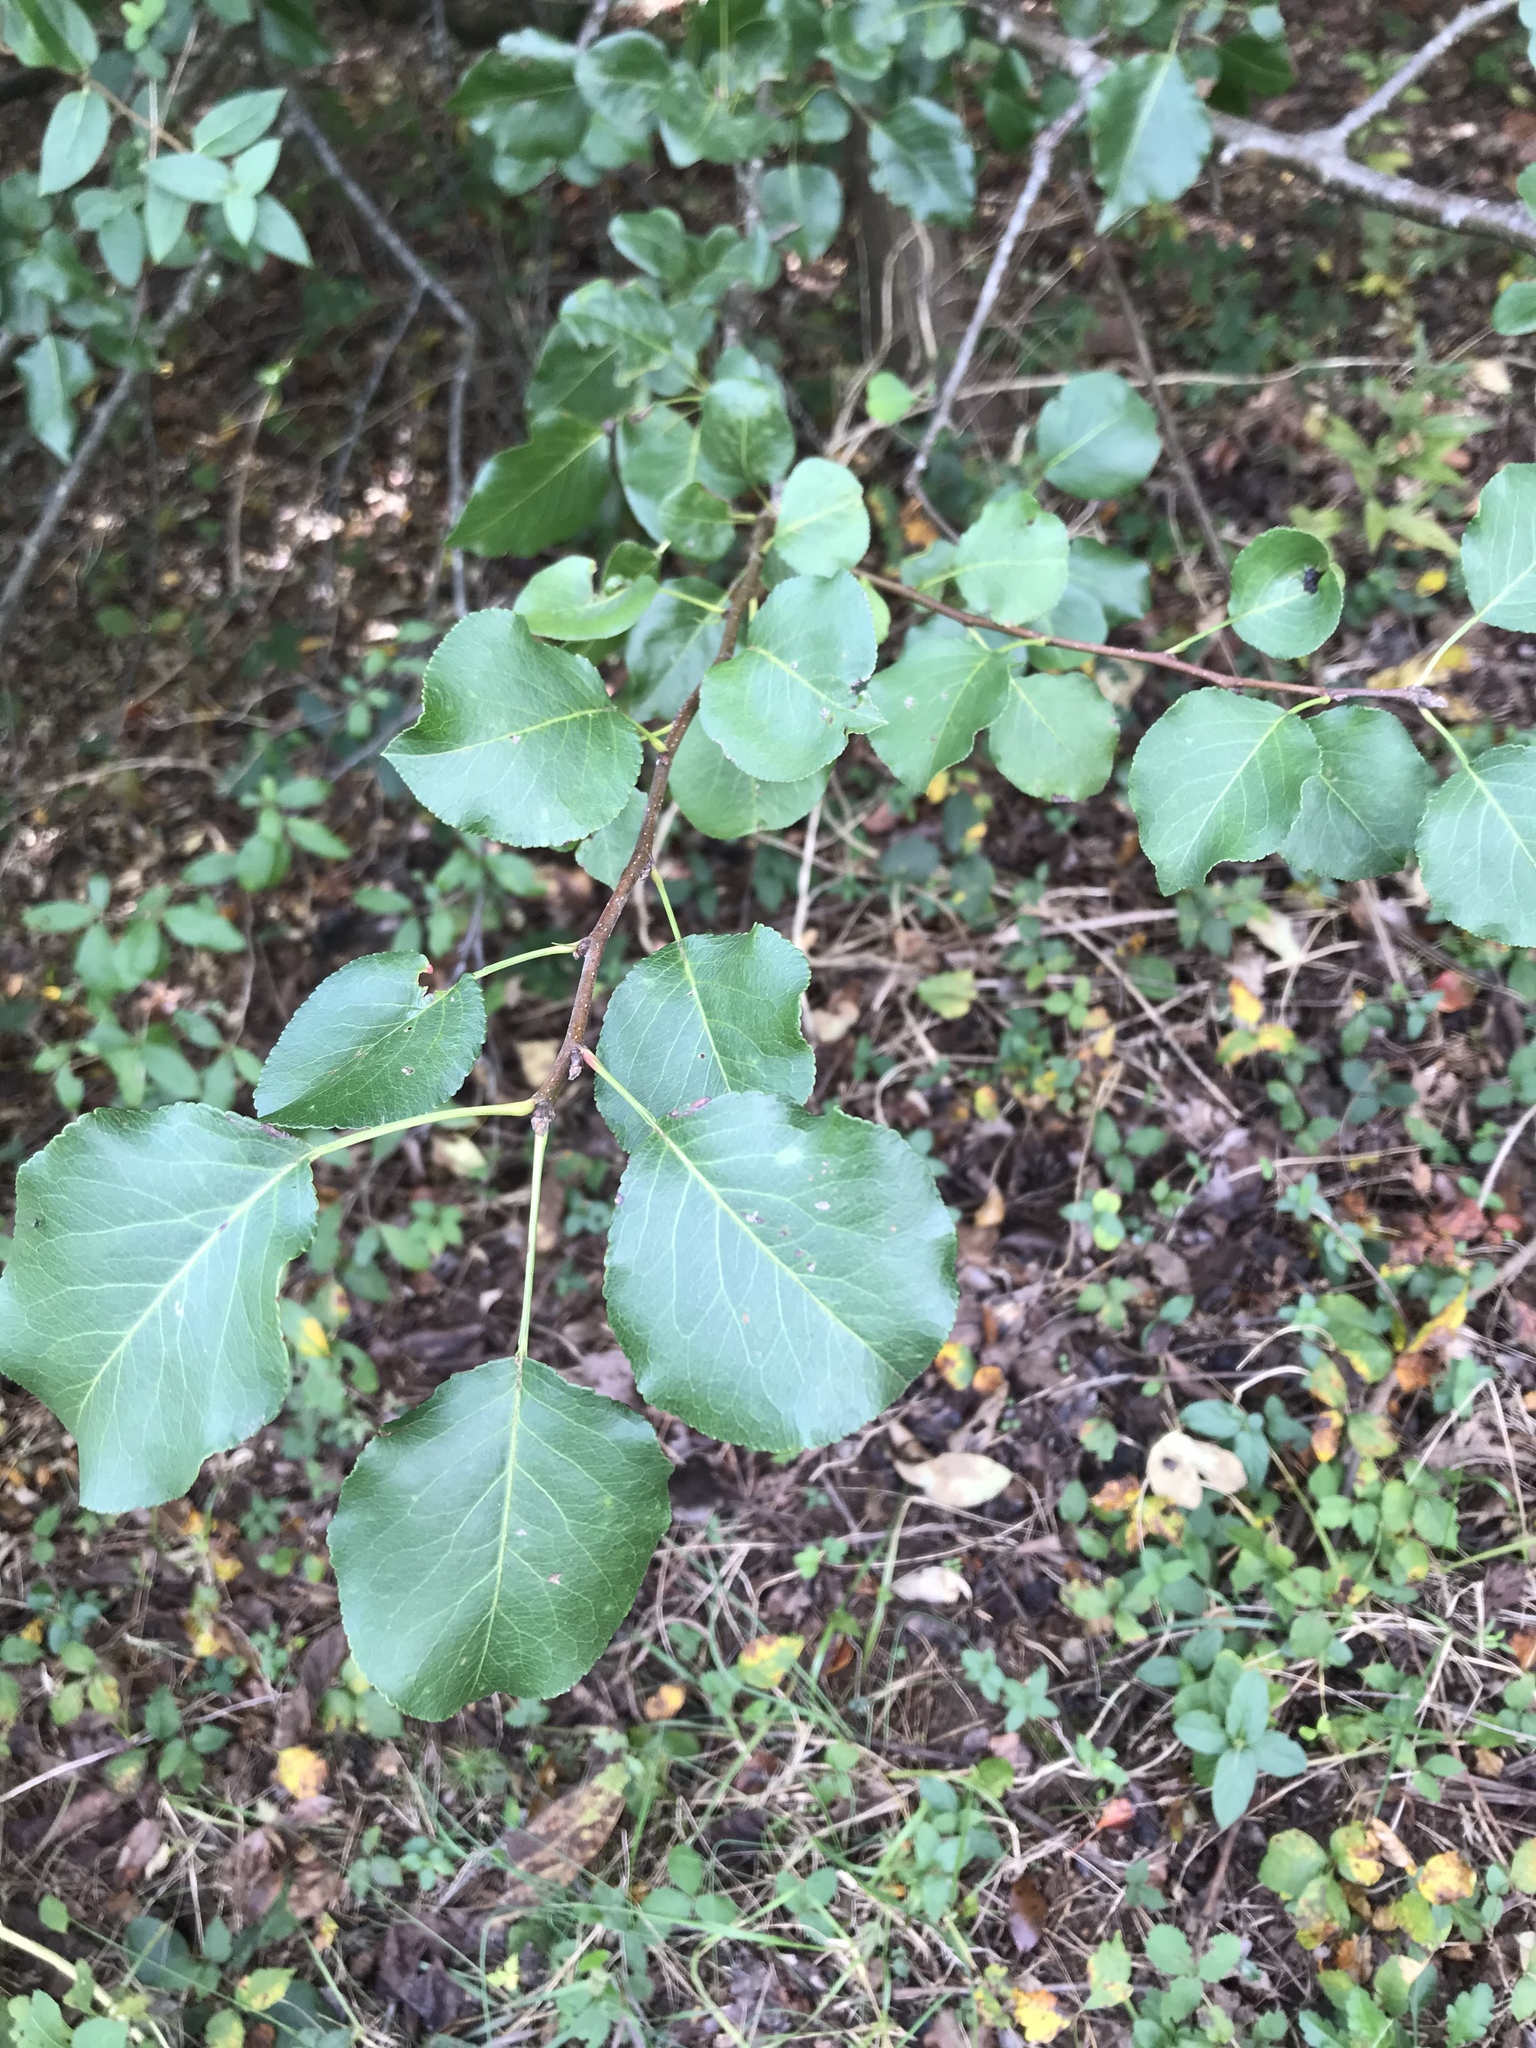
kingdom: Plantae
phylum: Tracheophyta
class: Magnoliopsida
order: Rosales
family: Rosaceae
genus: Pyrus
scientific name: Pyrus calleryana
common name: Callery pear
